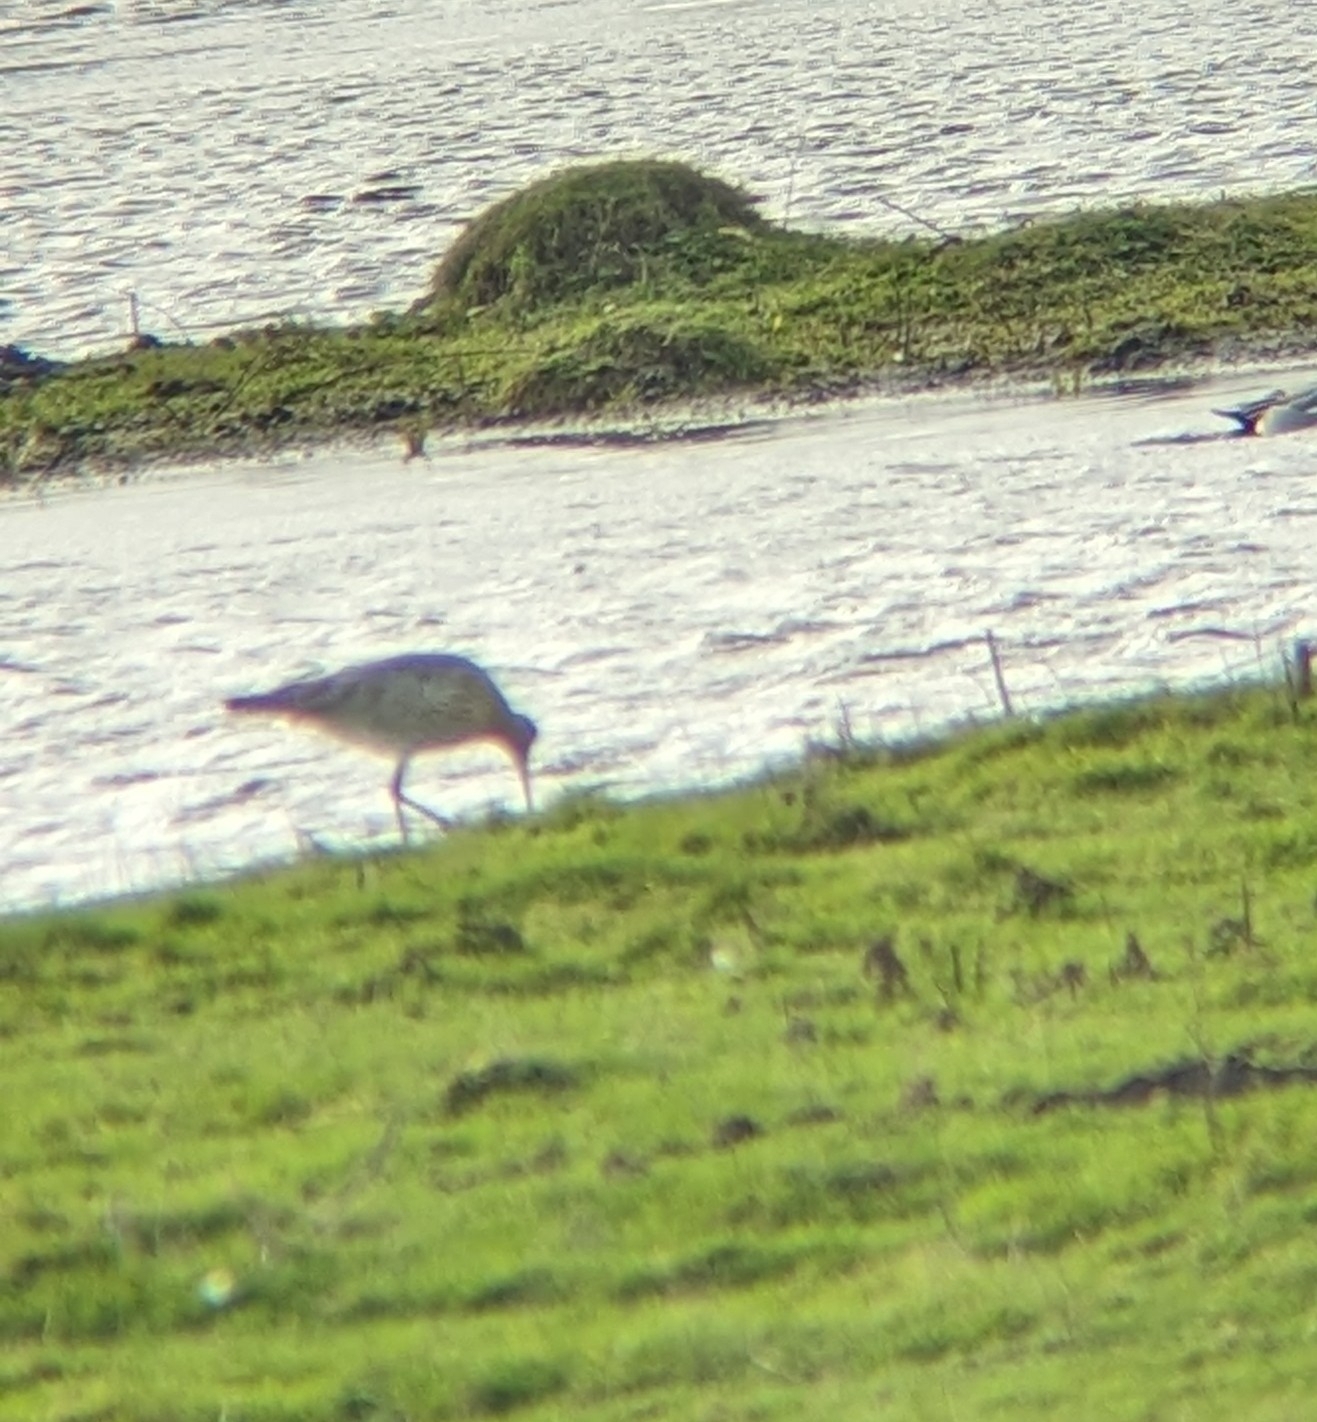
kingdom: Animalia
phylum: Chordata
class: Aves
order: Charadriiformes
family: Scolopacidae
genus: Numenius
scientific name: Numenius arquata
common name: Eurasian curlew
